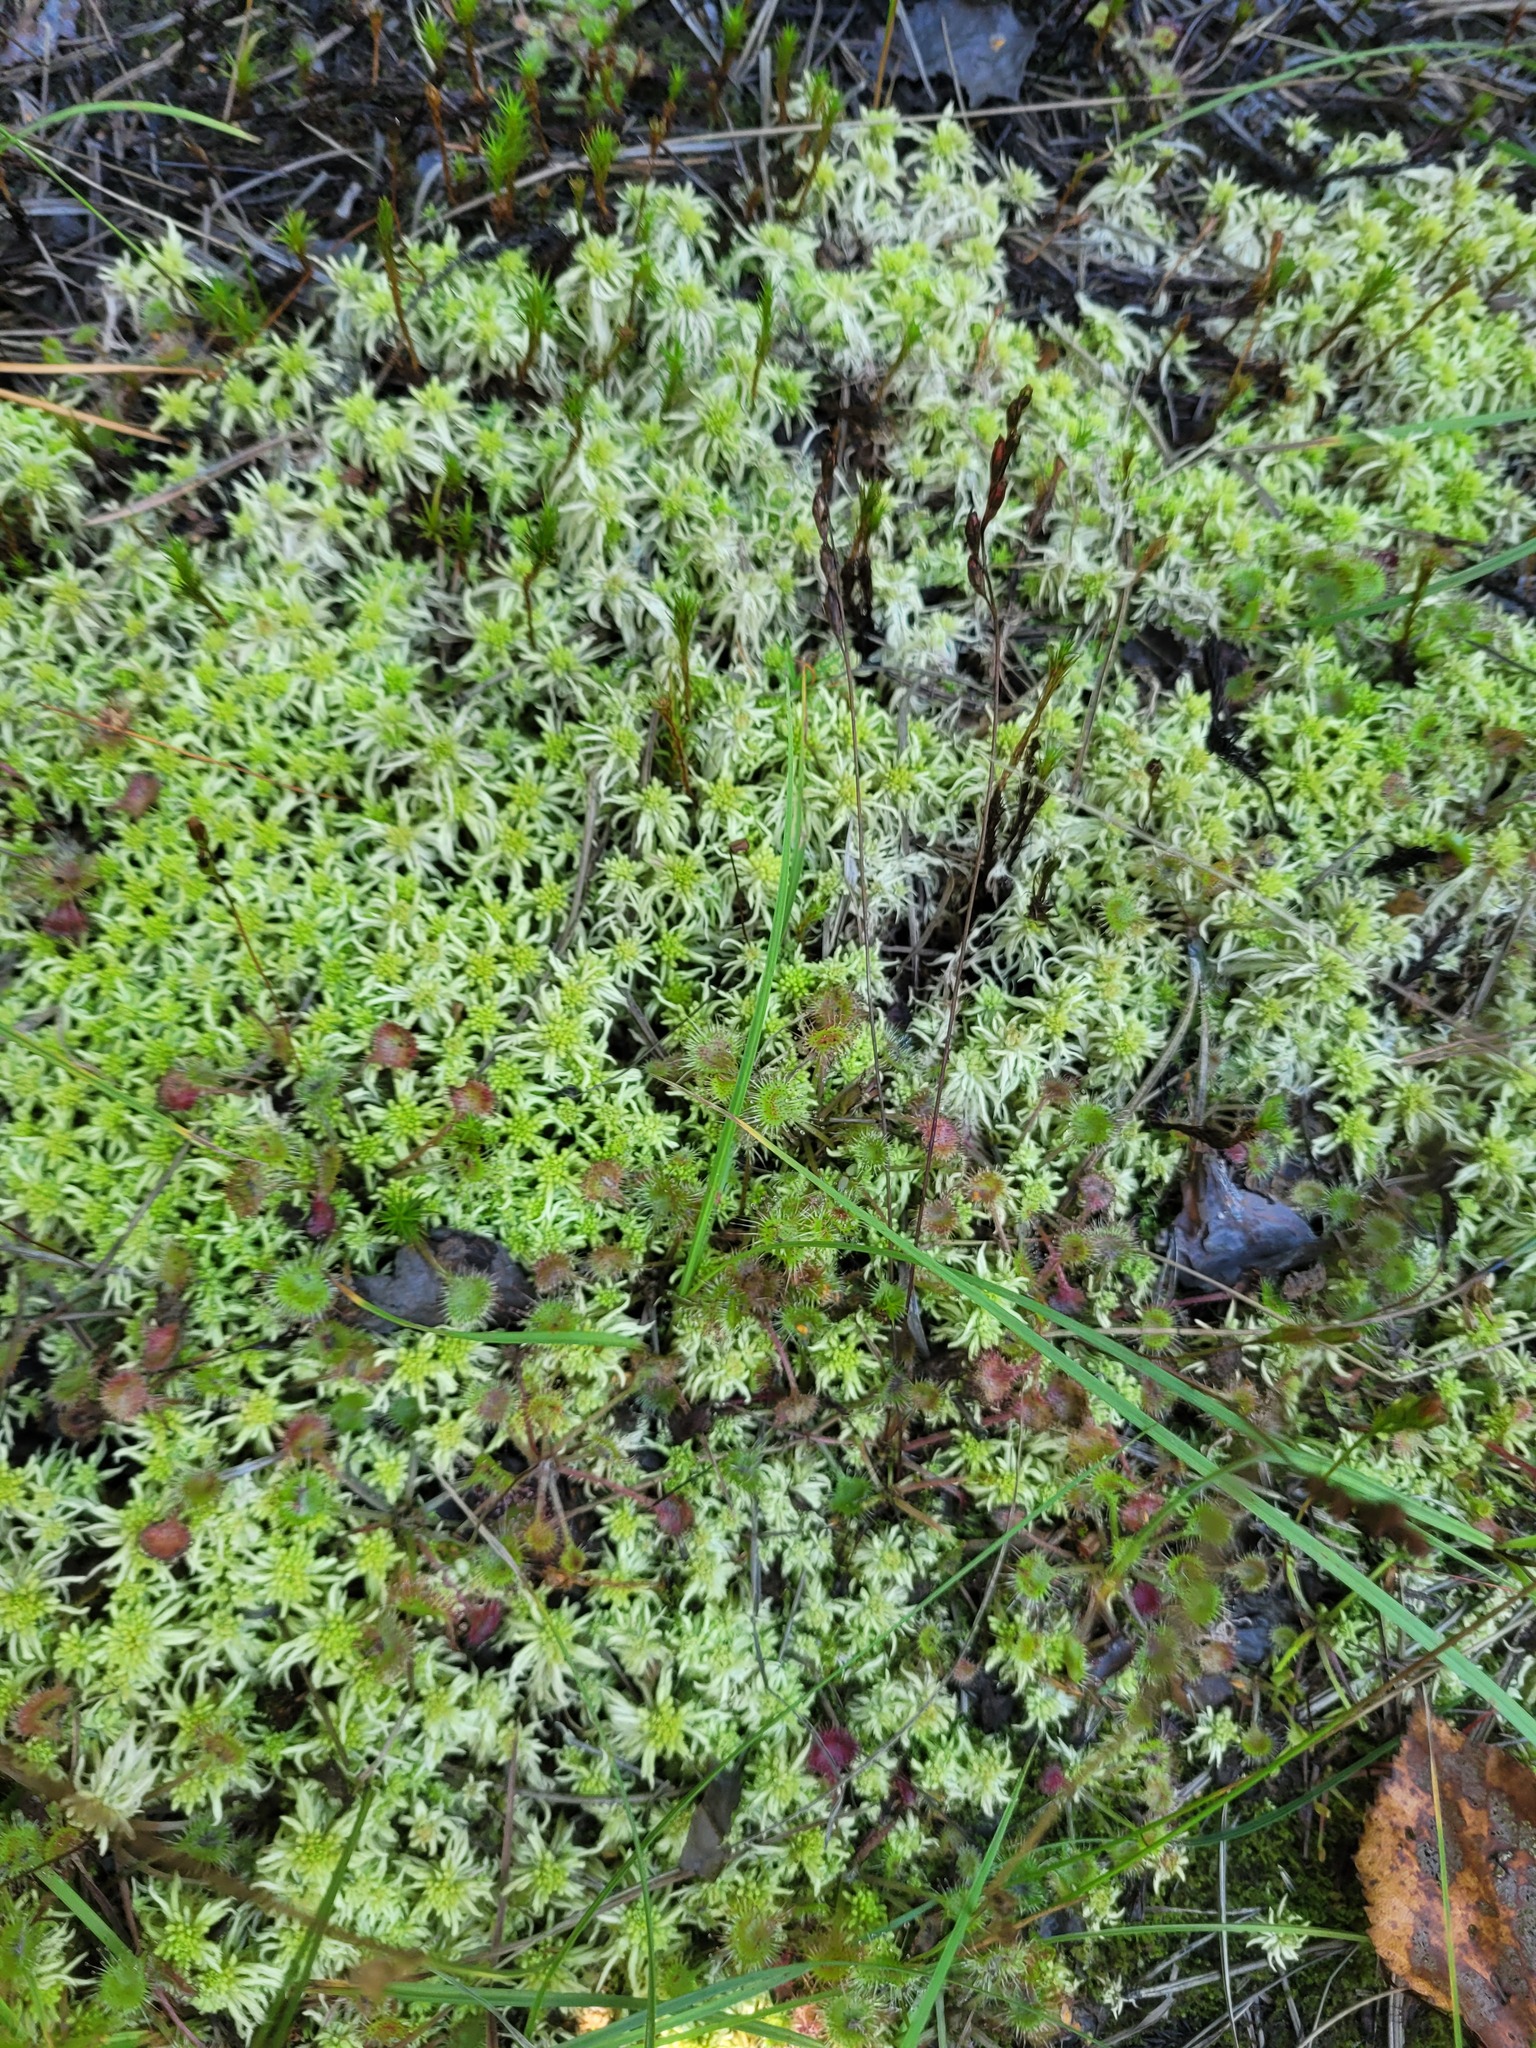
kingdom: Plantae
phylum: Tracheophyta
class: Magnoliopsida
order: Caryophyllales
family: Droseraceae
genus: Drosera
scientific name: Drosera rotundifolia
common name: Round-leaved sundew
